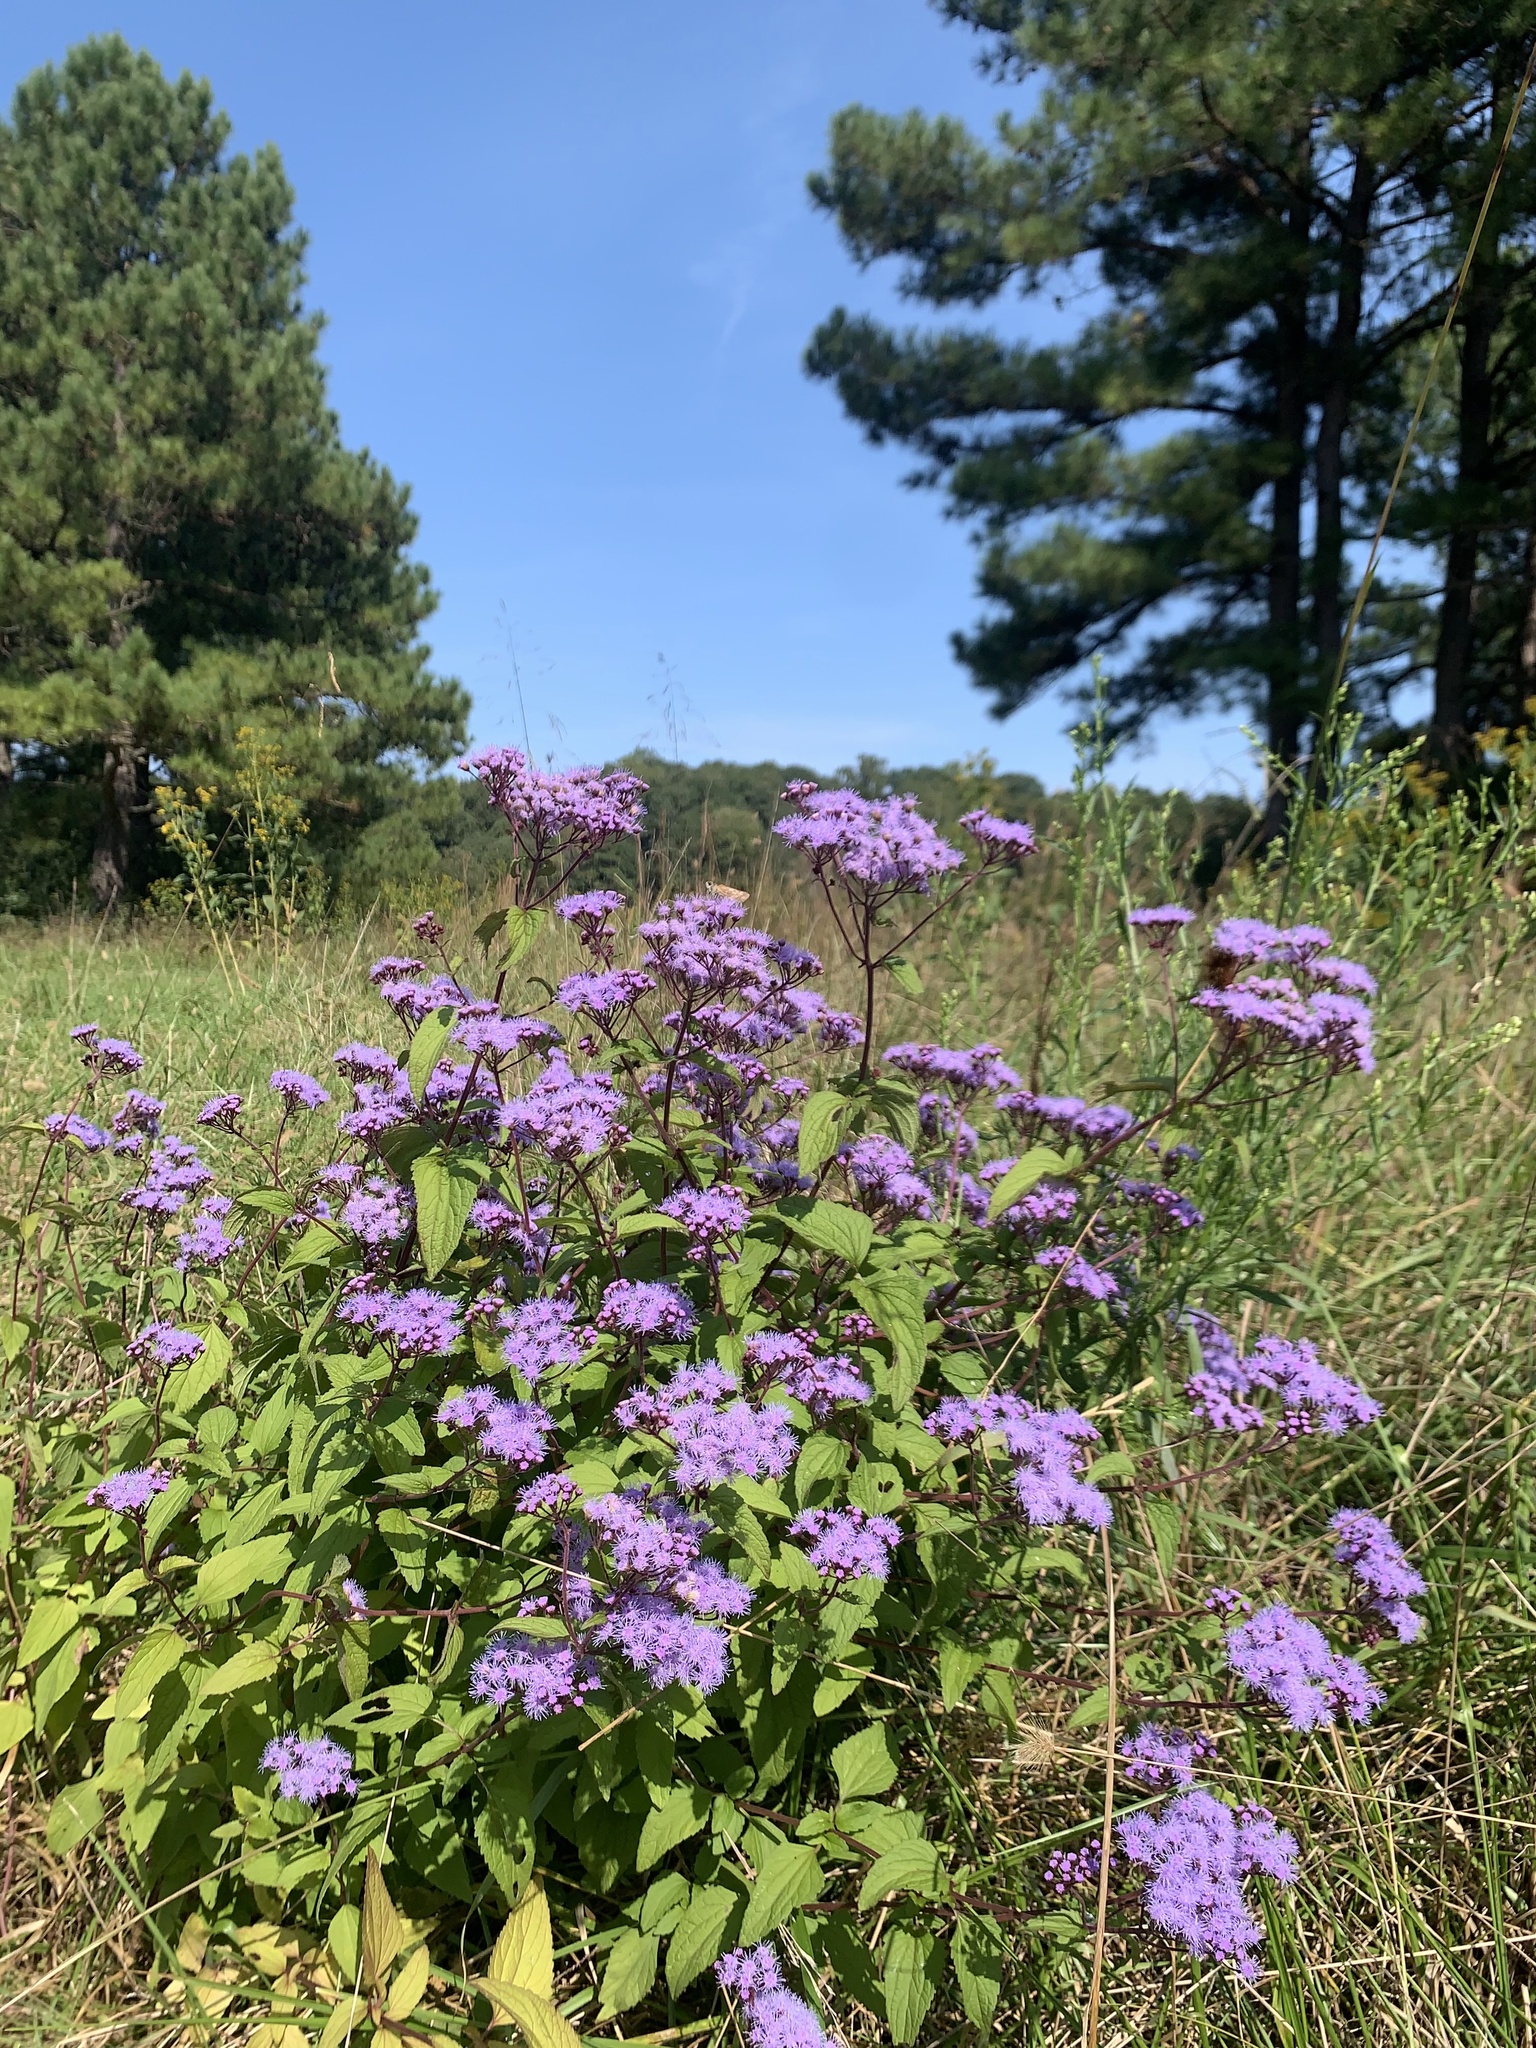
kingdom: Plantae
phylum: Tracheophyta
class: Magnoliopsida
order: Asterales
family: Asteraceae
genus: Conoclinium
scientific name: Conoclinium coelestinum
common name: Blue mistflower
